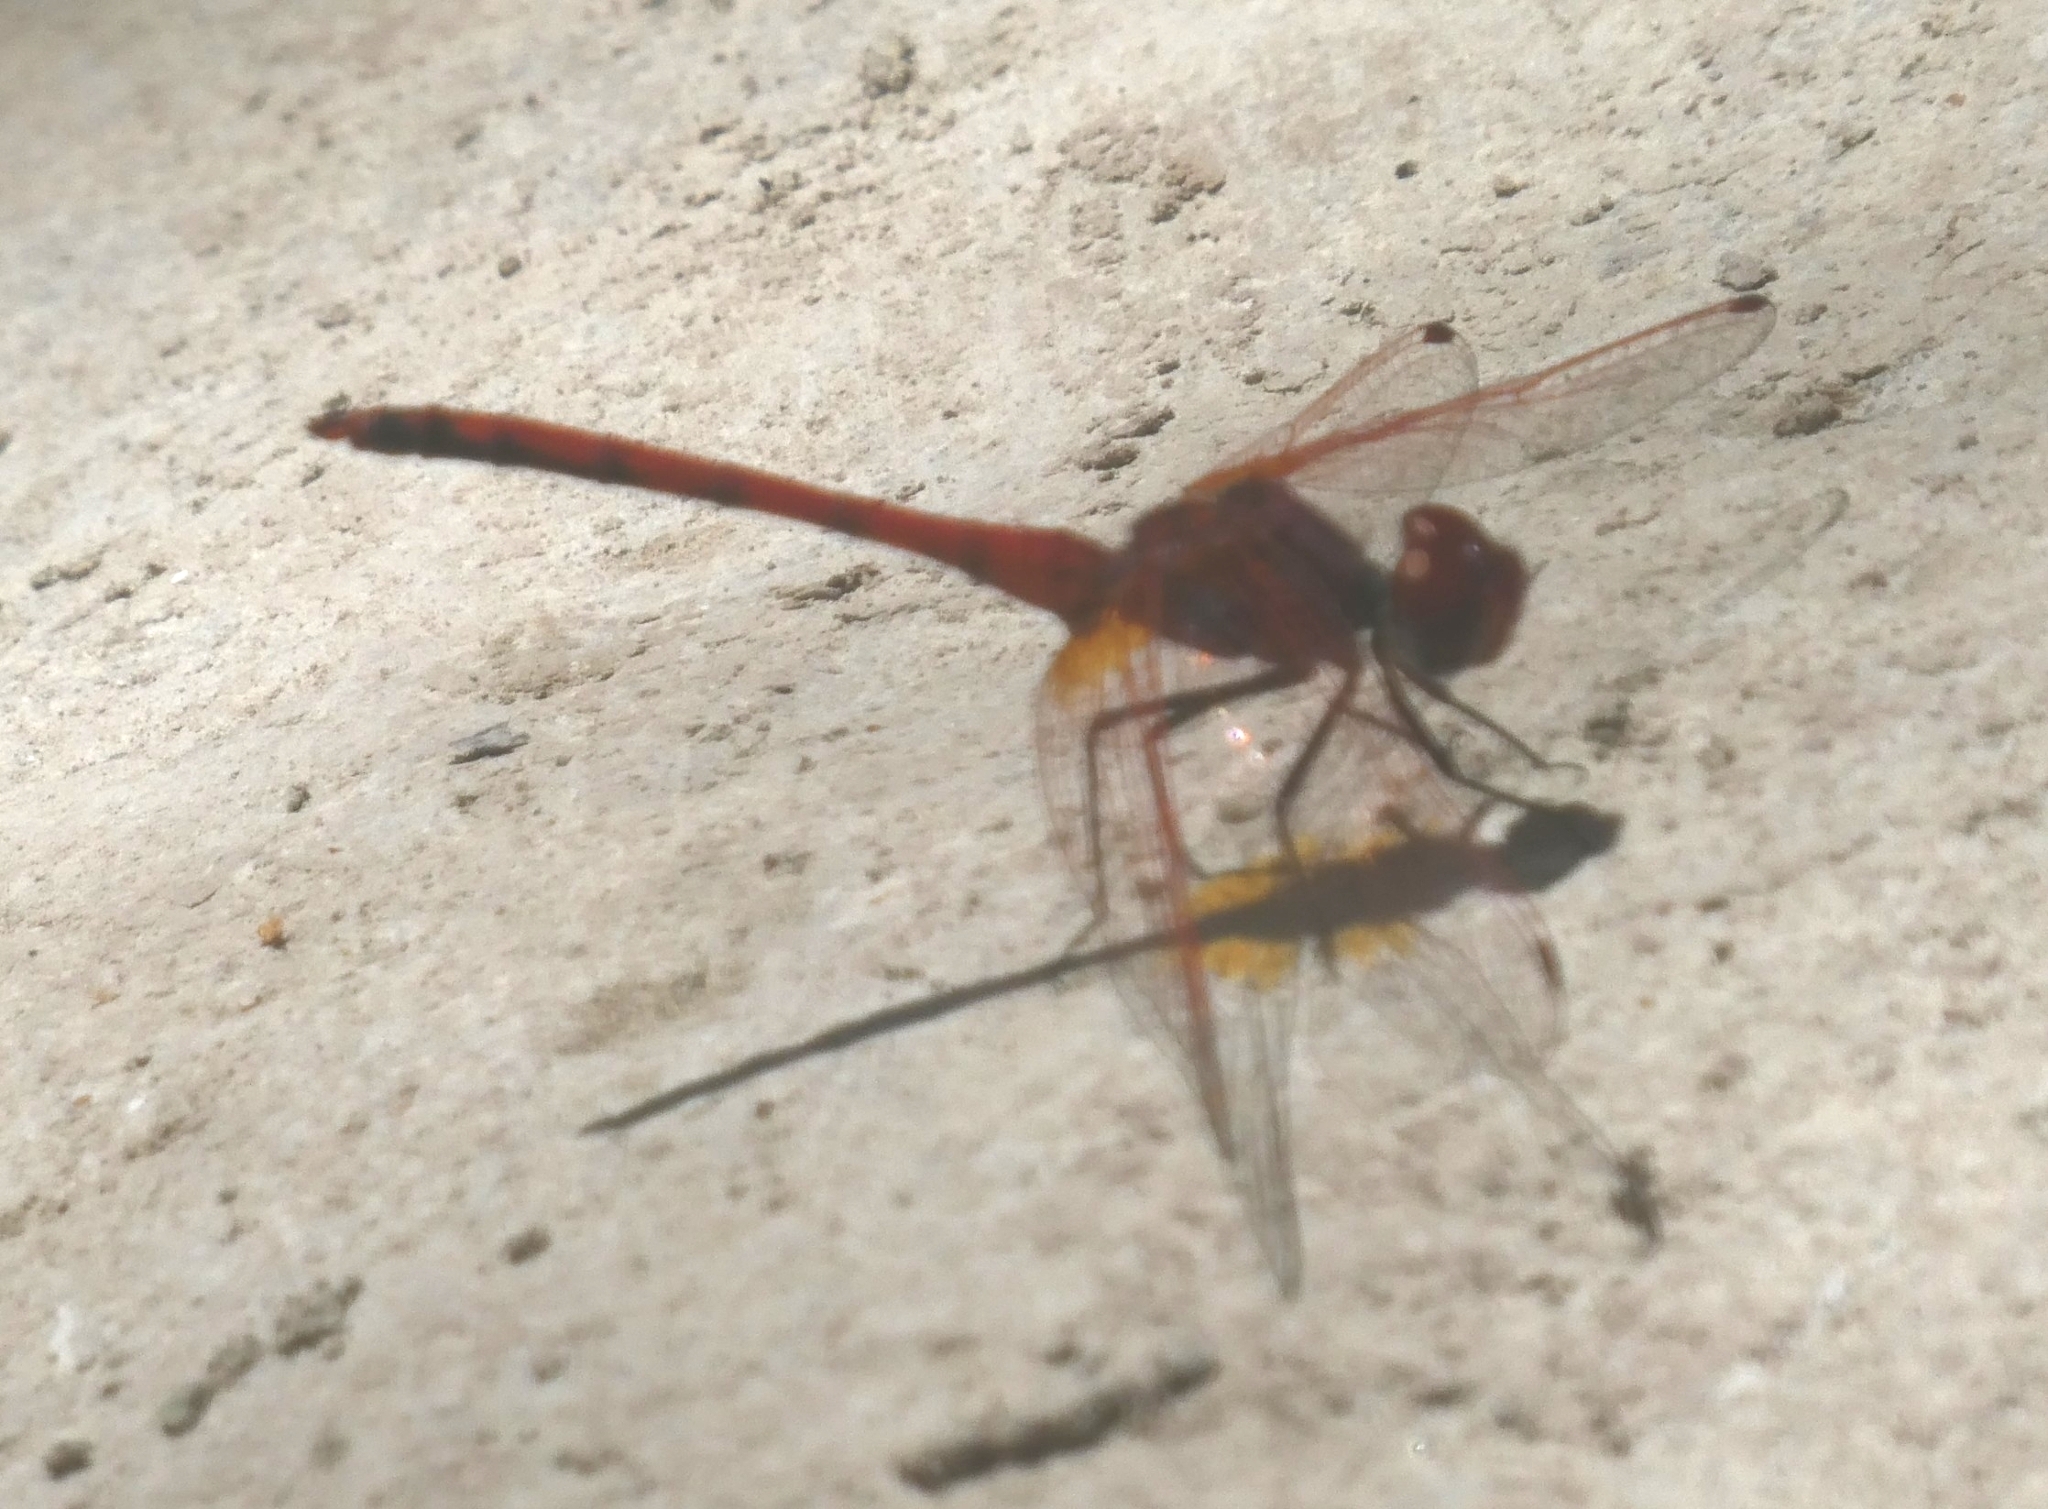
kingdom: Animalia
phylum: Arthropoda
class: Insecta
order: Odonata
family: Libellulidae
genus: Trithemis
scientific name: Trithemis arteriosa
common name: Red-veined dropwing
